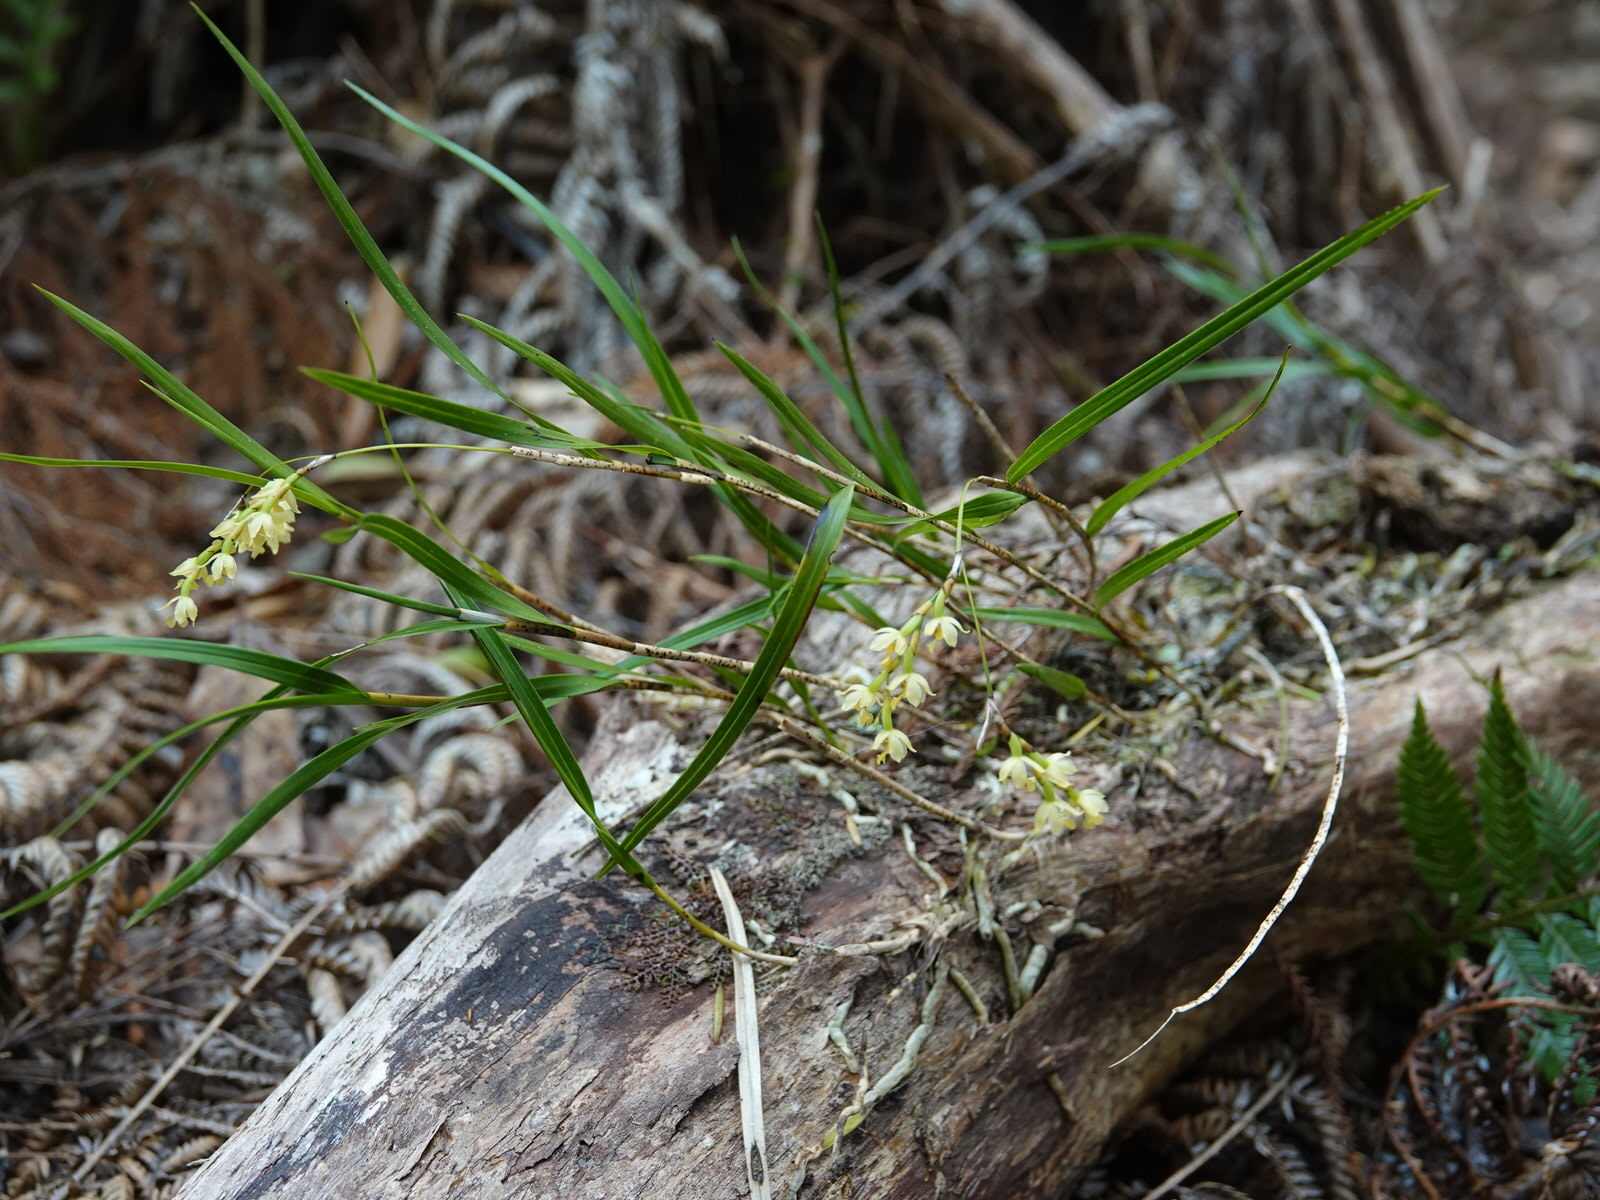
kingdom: Plantae
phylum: Tracheophyta
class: Liliopsida
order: Asparagales
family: Orchidaceae
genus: Earina
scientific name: Earina mucronata
